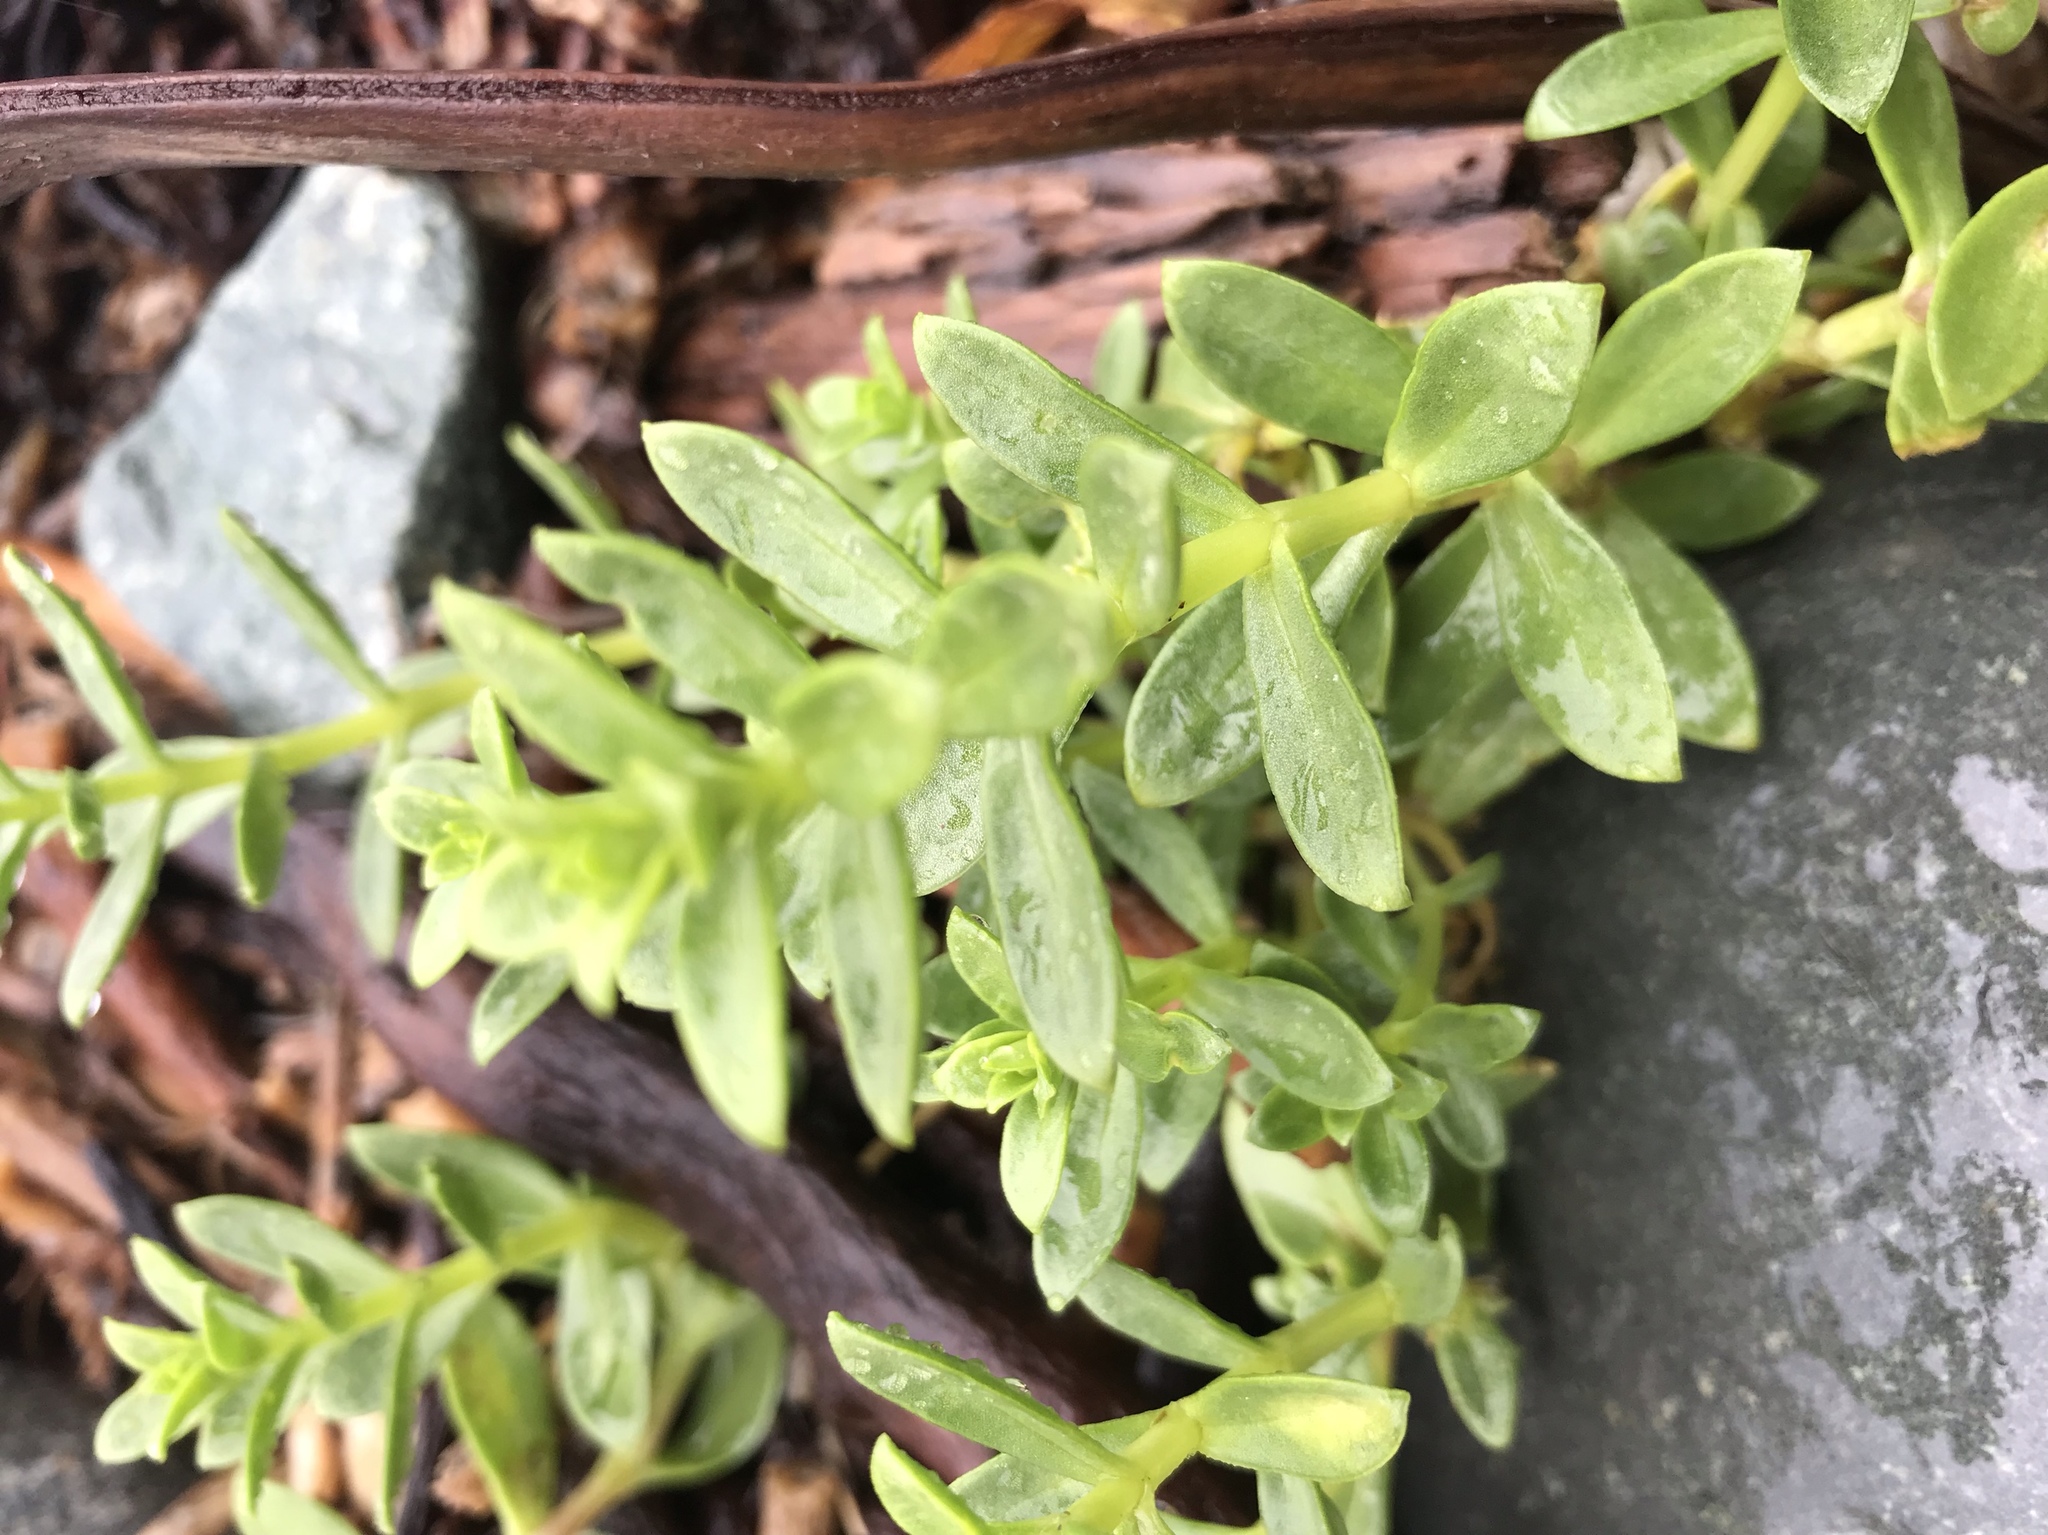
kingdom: Plantae
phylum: Tracheophyta
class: Magnoliopsida
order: Caryophyllales
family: Caryophyllaceae
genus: Honckenya
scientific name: Honckenya peploides
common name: Sea sandwort
